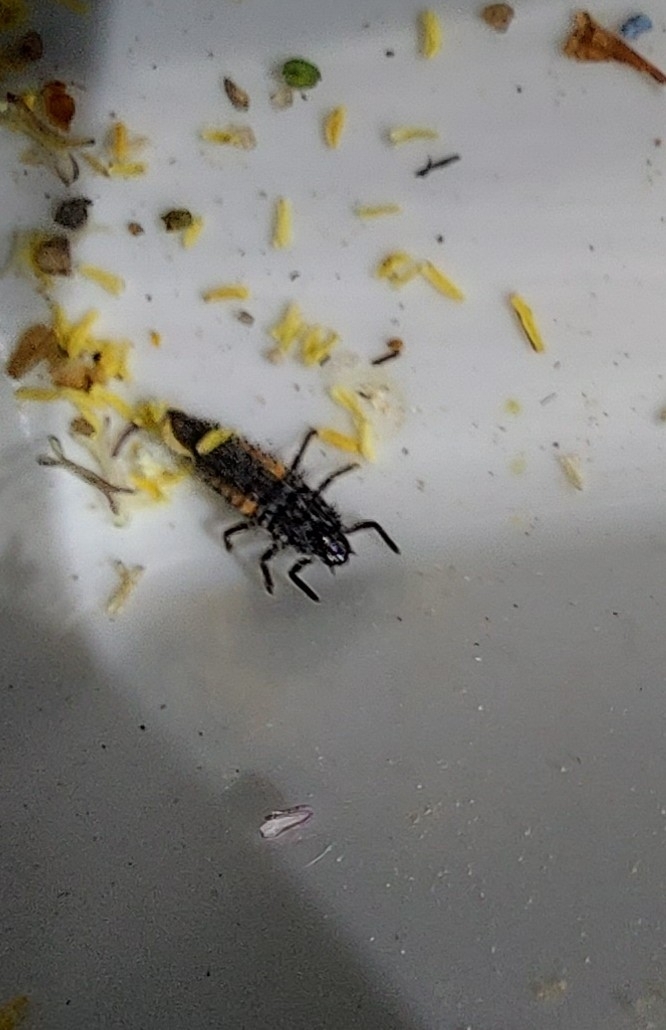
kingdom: Animalia
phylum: Arthropoda
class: Insecta
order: Coleoptera
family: Coccinellidae
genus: Harmonia
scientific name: Harmonia axyridis
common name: Harlequin ladybird
